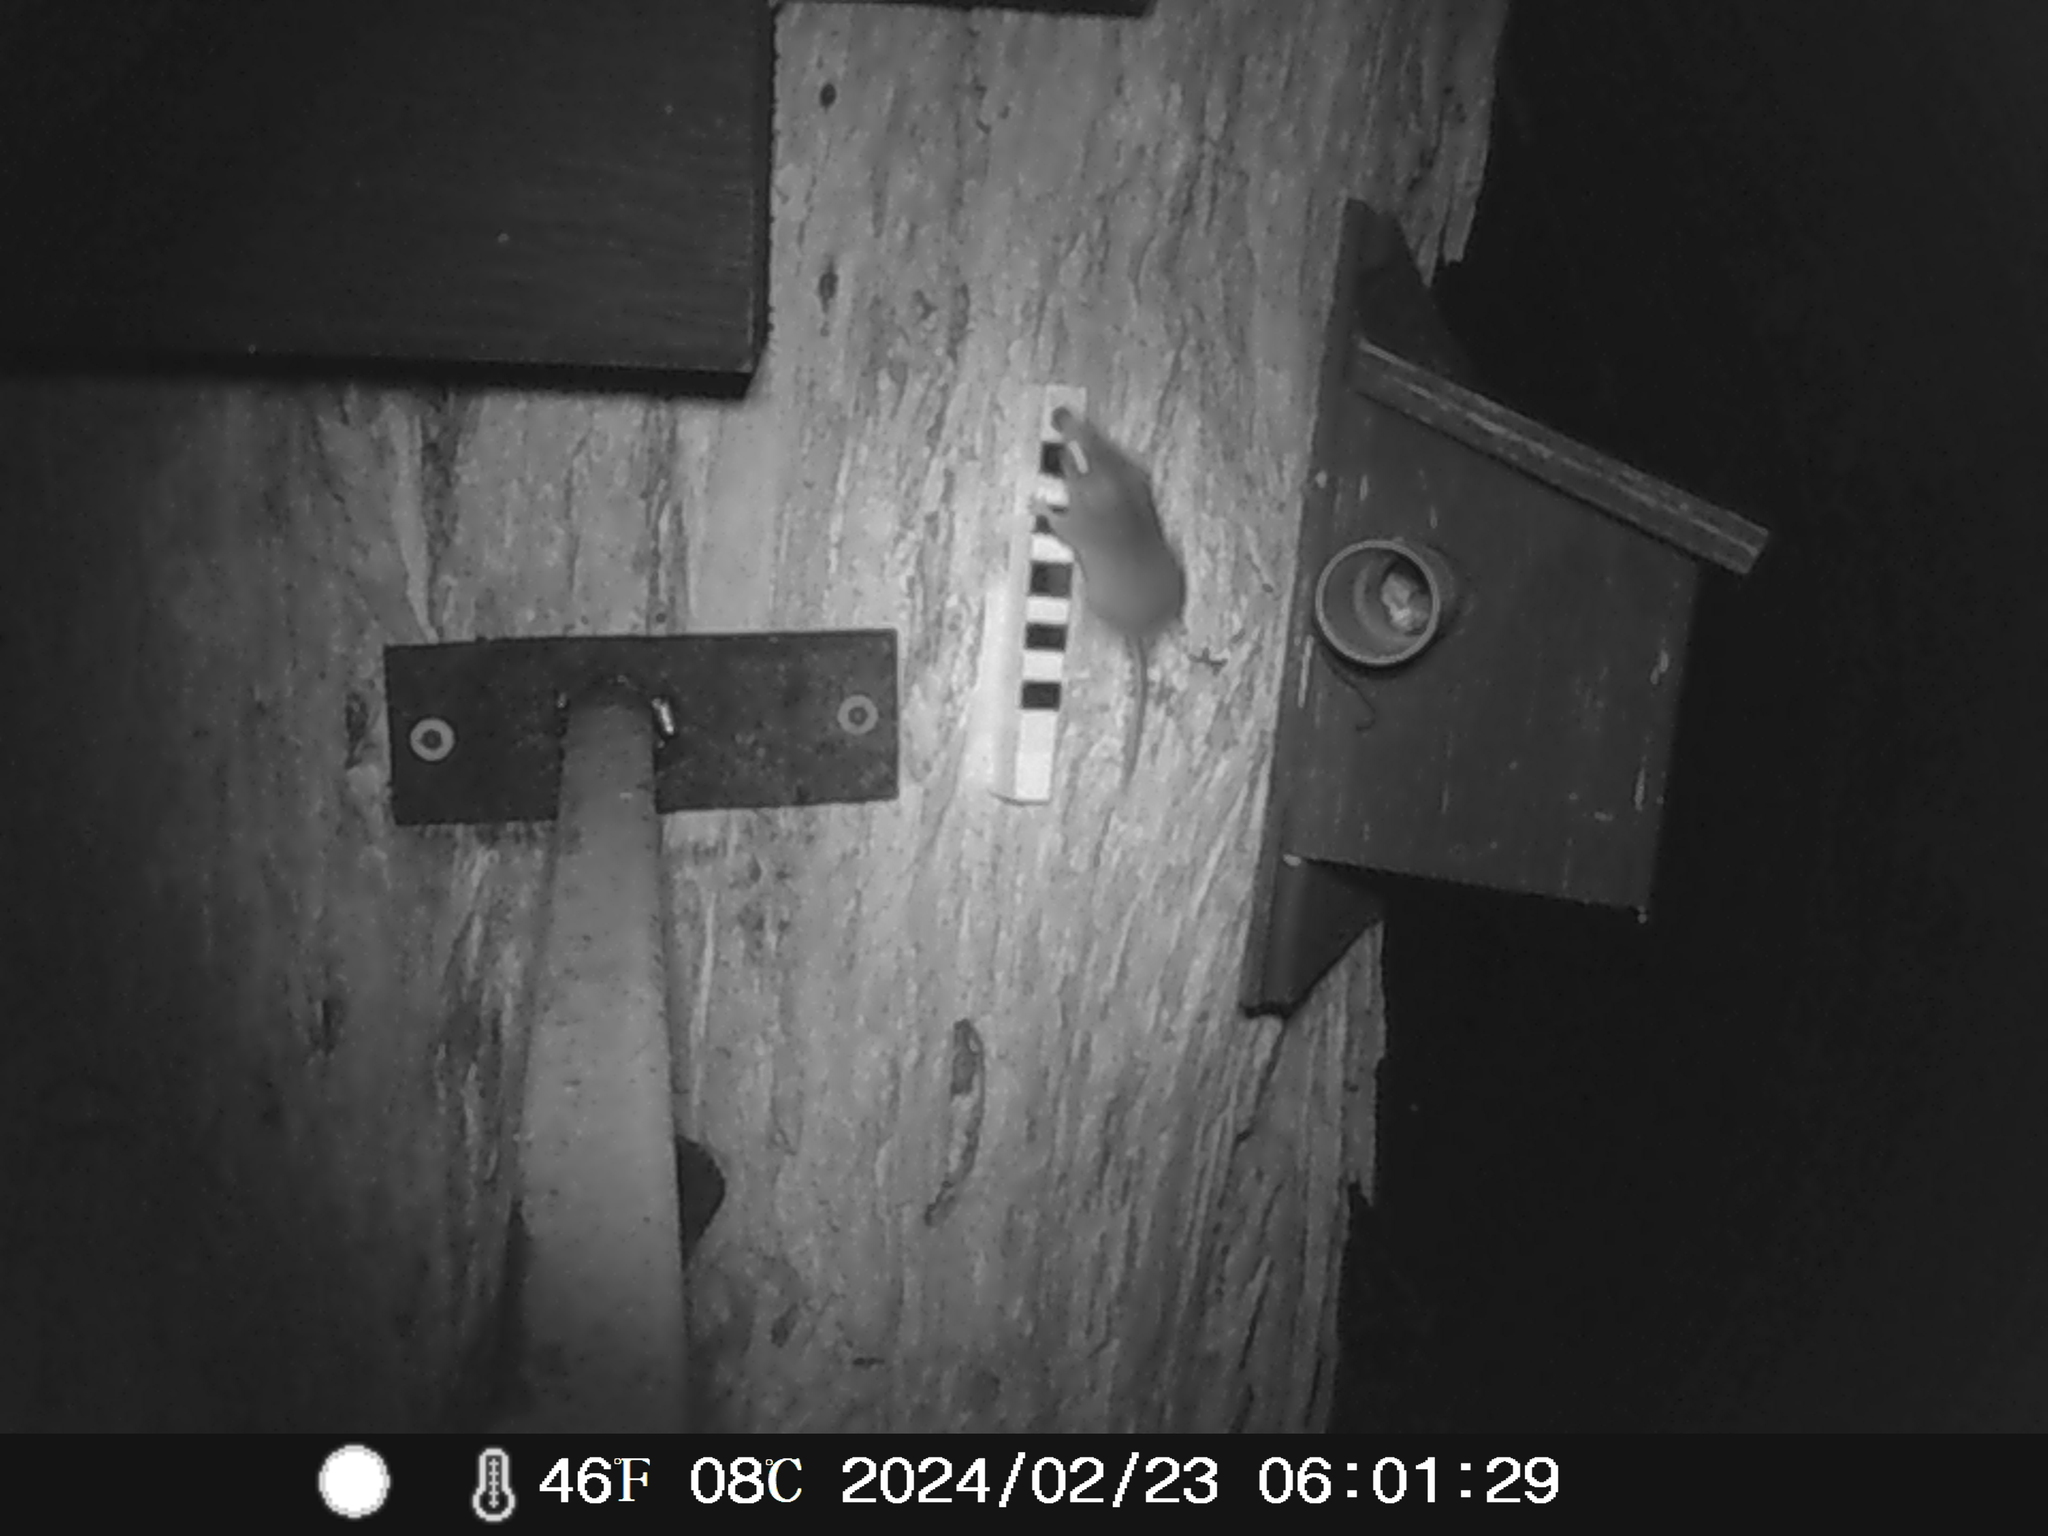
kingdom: Animalia
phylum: Chordata
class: Mammalia
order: Dasyuromorphia
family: Dasyuridae
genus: Antechinus
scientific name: Antechinus agilis
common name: Agile antechinus
